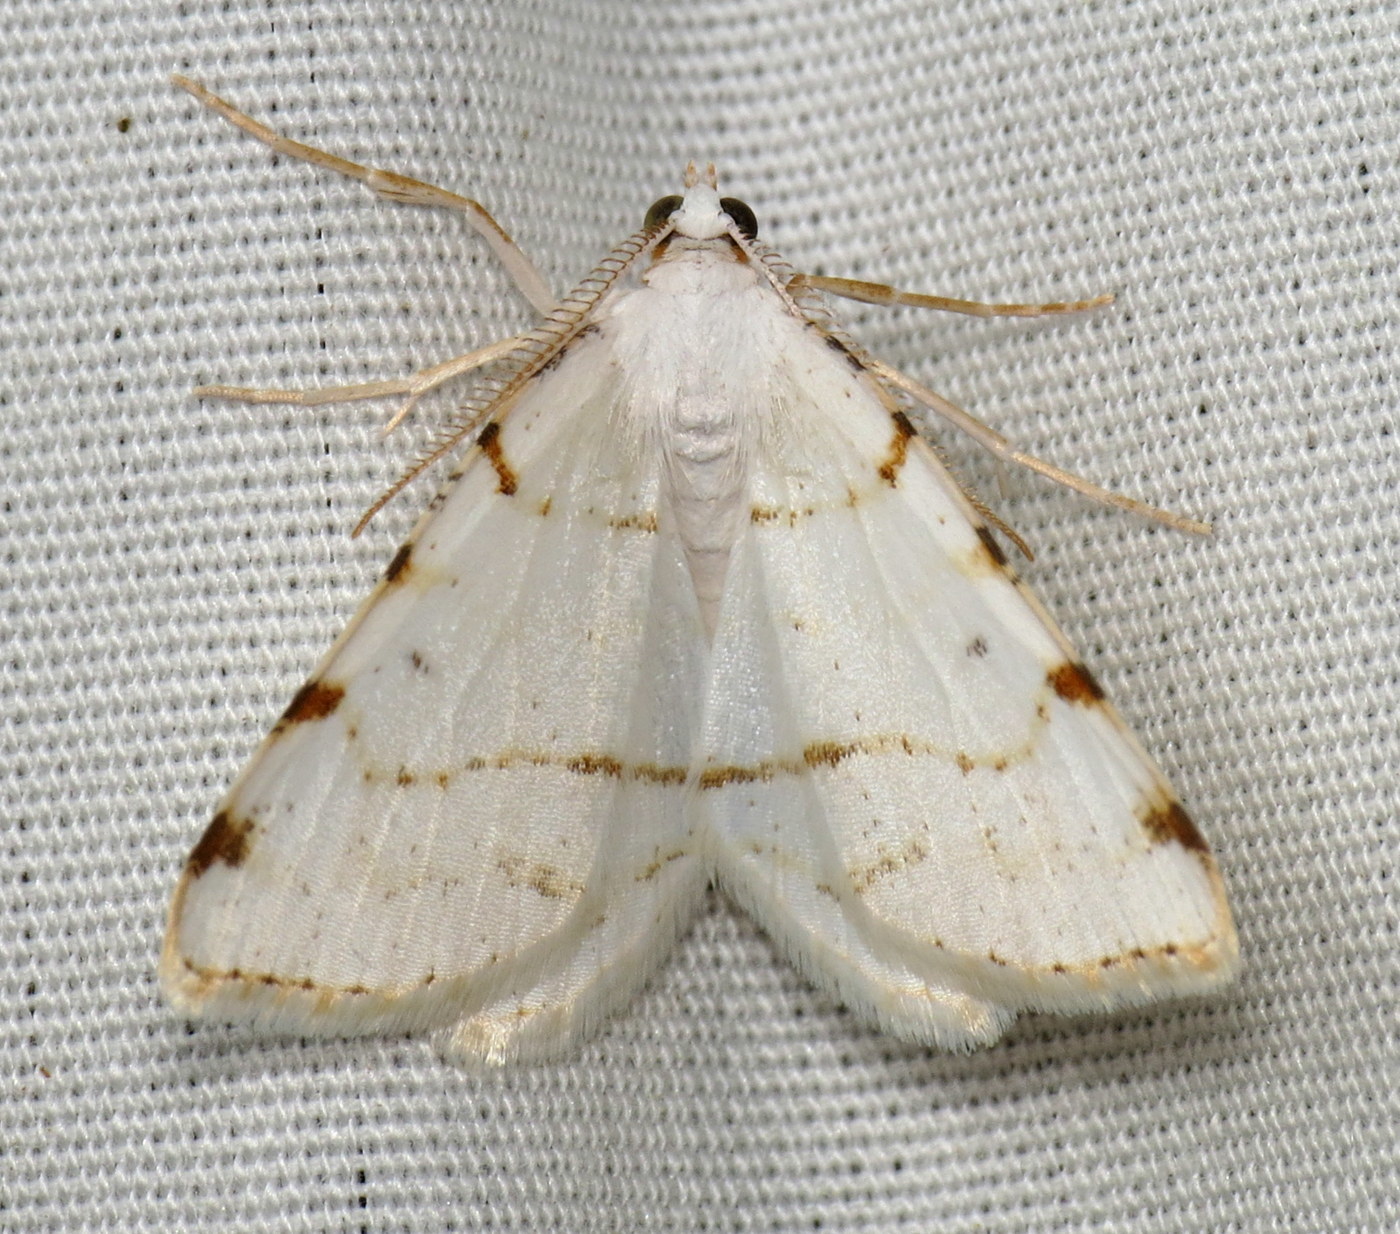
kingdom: Animalia
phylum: Arthropoda
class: Insecta
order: Lepidoptera
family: Geometridae
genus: Macaria
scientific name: Macaria pustularia
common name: Lesser maple spanworm moth
